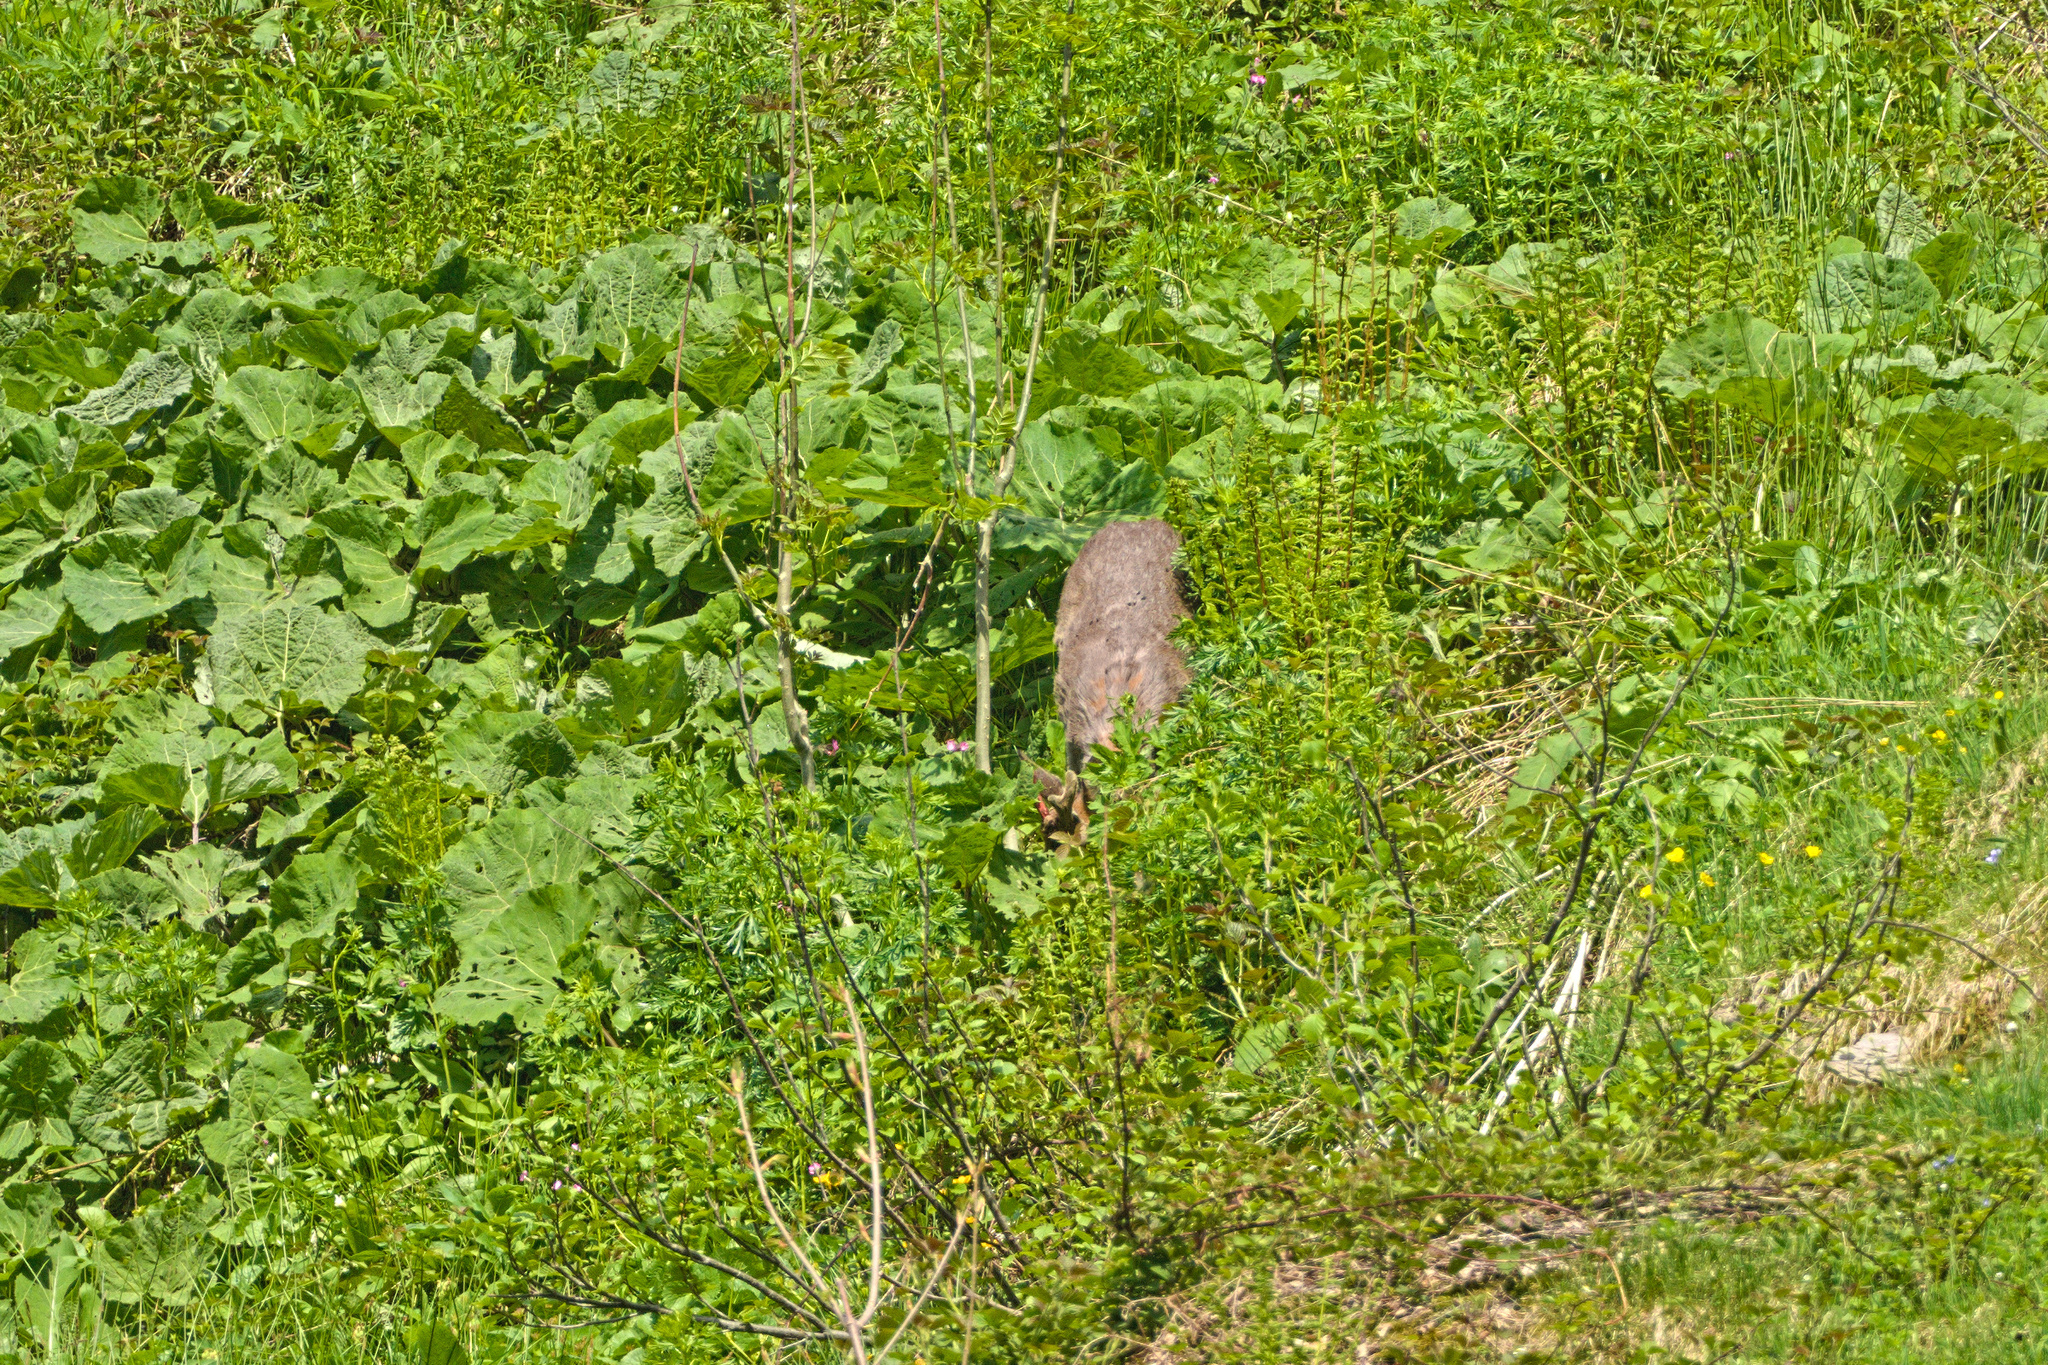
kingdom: Animalia
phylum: Chordata
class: Mammalia
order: Artiodactyla
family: Cervidae
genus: Capreolus
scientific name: Capreolus capreolus
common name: Western roe deer
